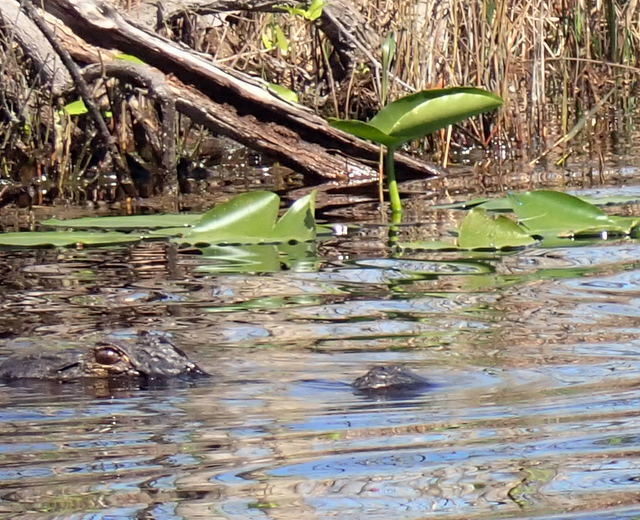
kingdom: Animalia
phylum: Chordata
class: Crocodylia
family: Alligatoridae
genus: Alligator
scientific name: Alligator mississippiensis
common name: American alligator
